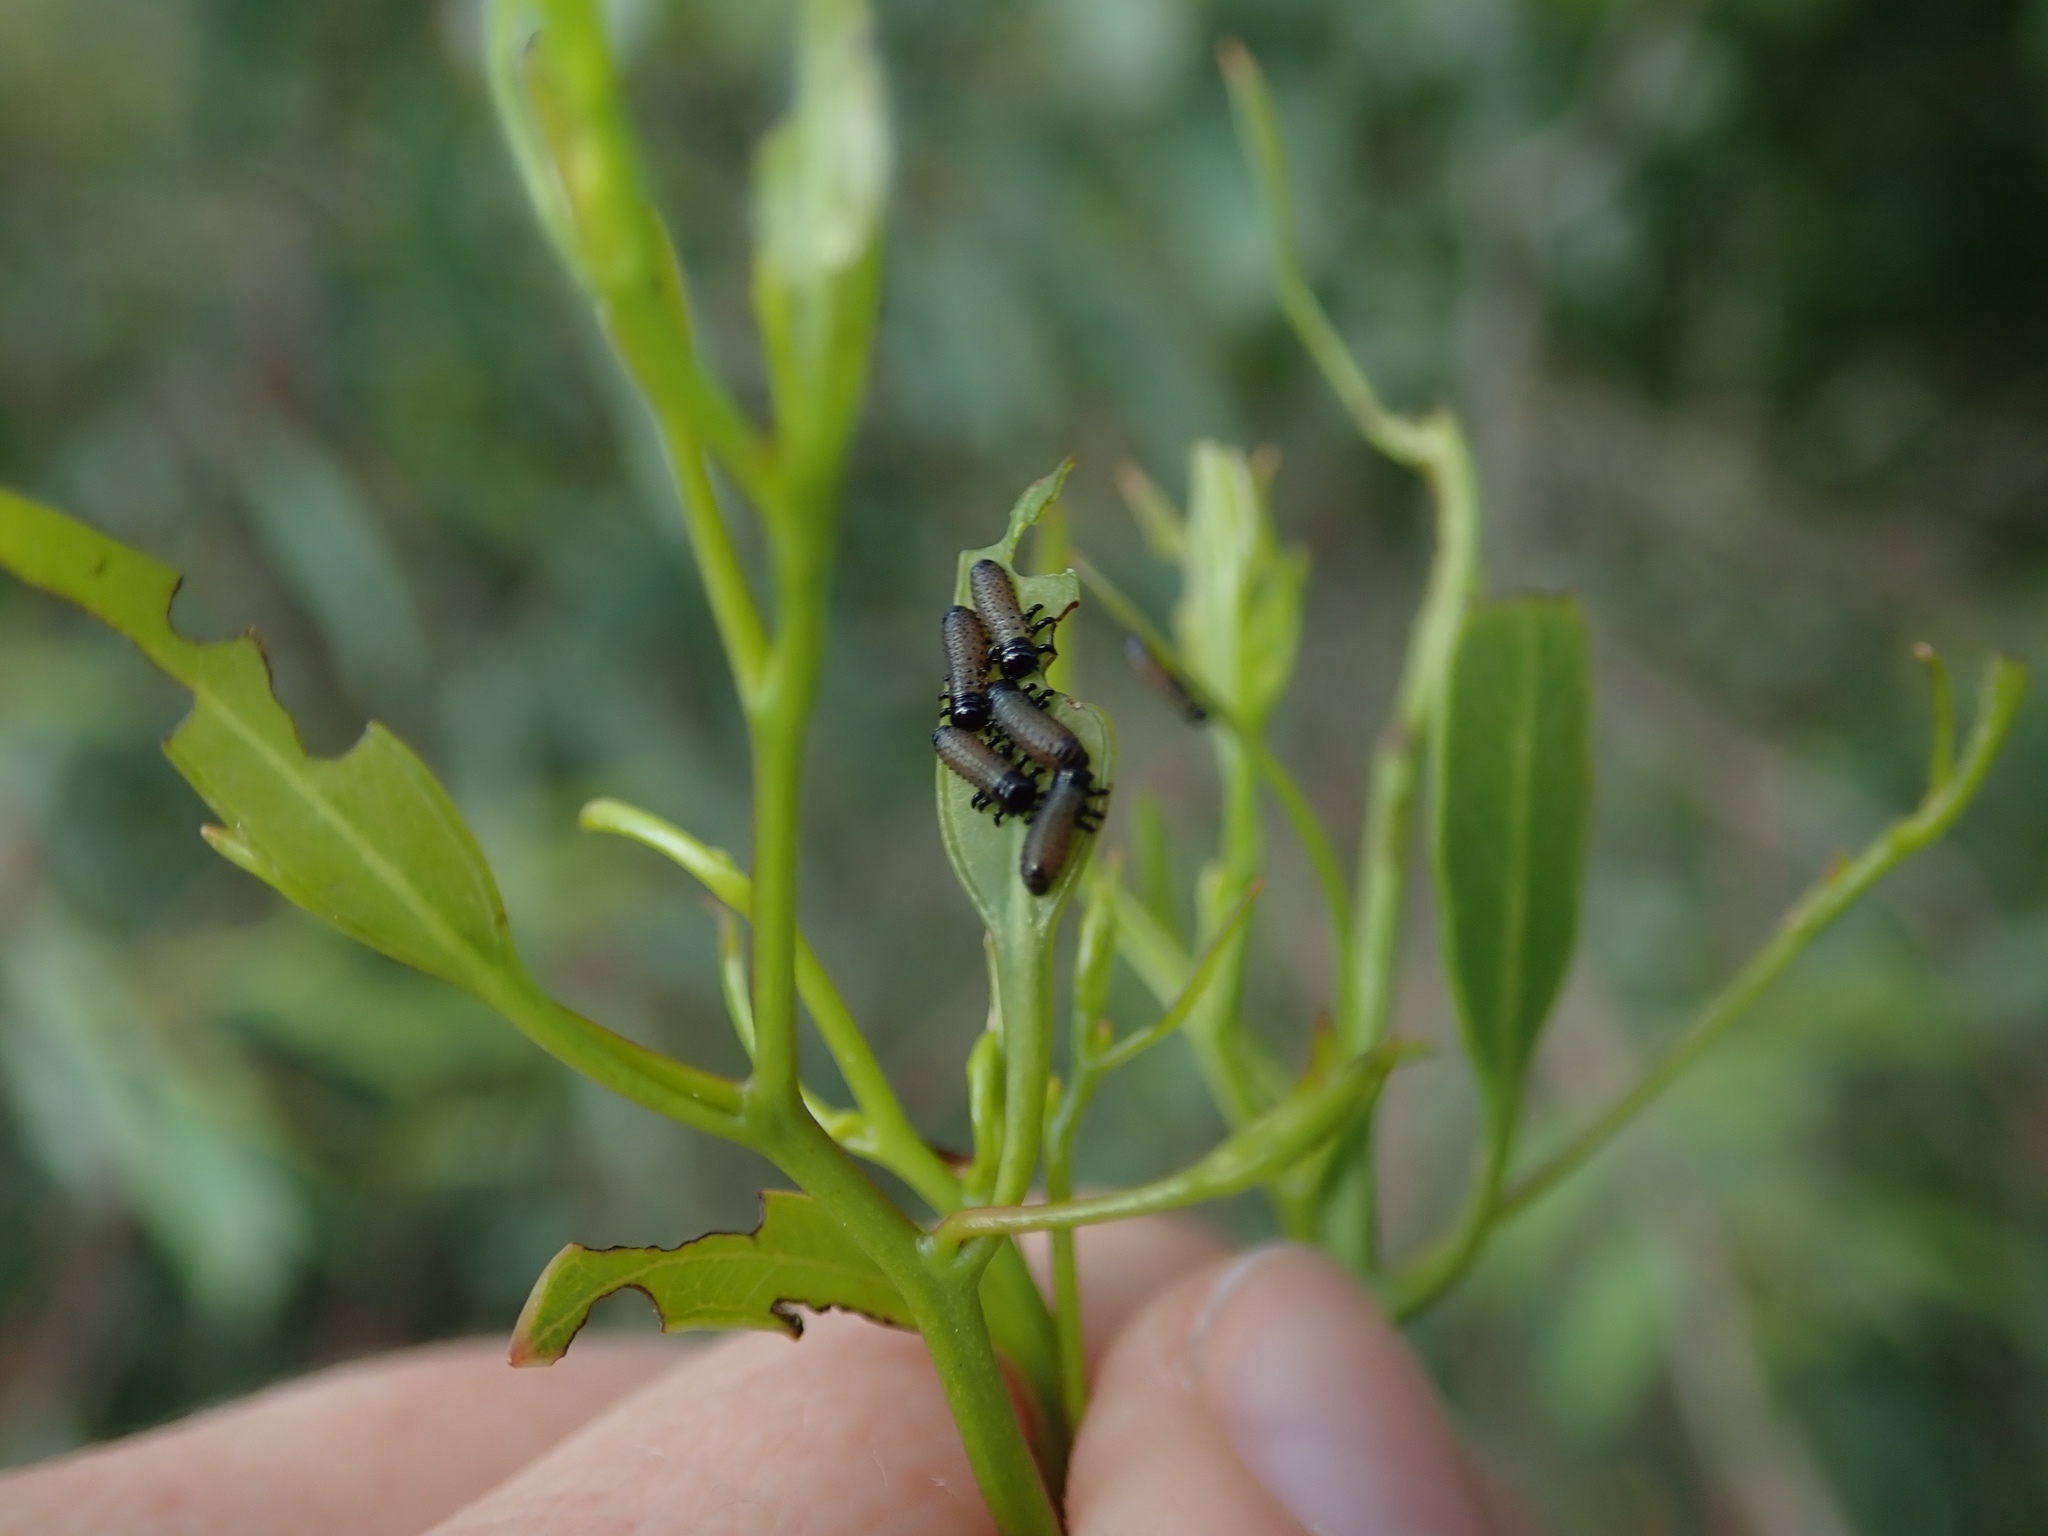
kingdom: Animalia
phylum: Arthropoda
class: Insecta
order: Coleoptera
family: Chrysomelidae
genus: Paropsis
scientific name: Paropsis charybdis
